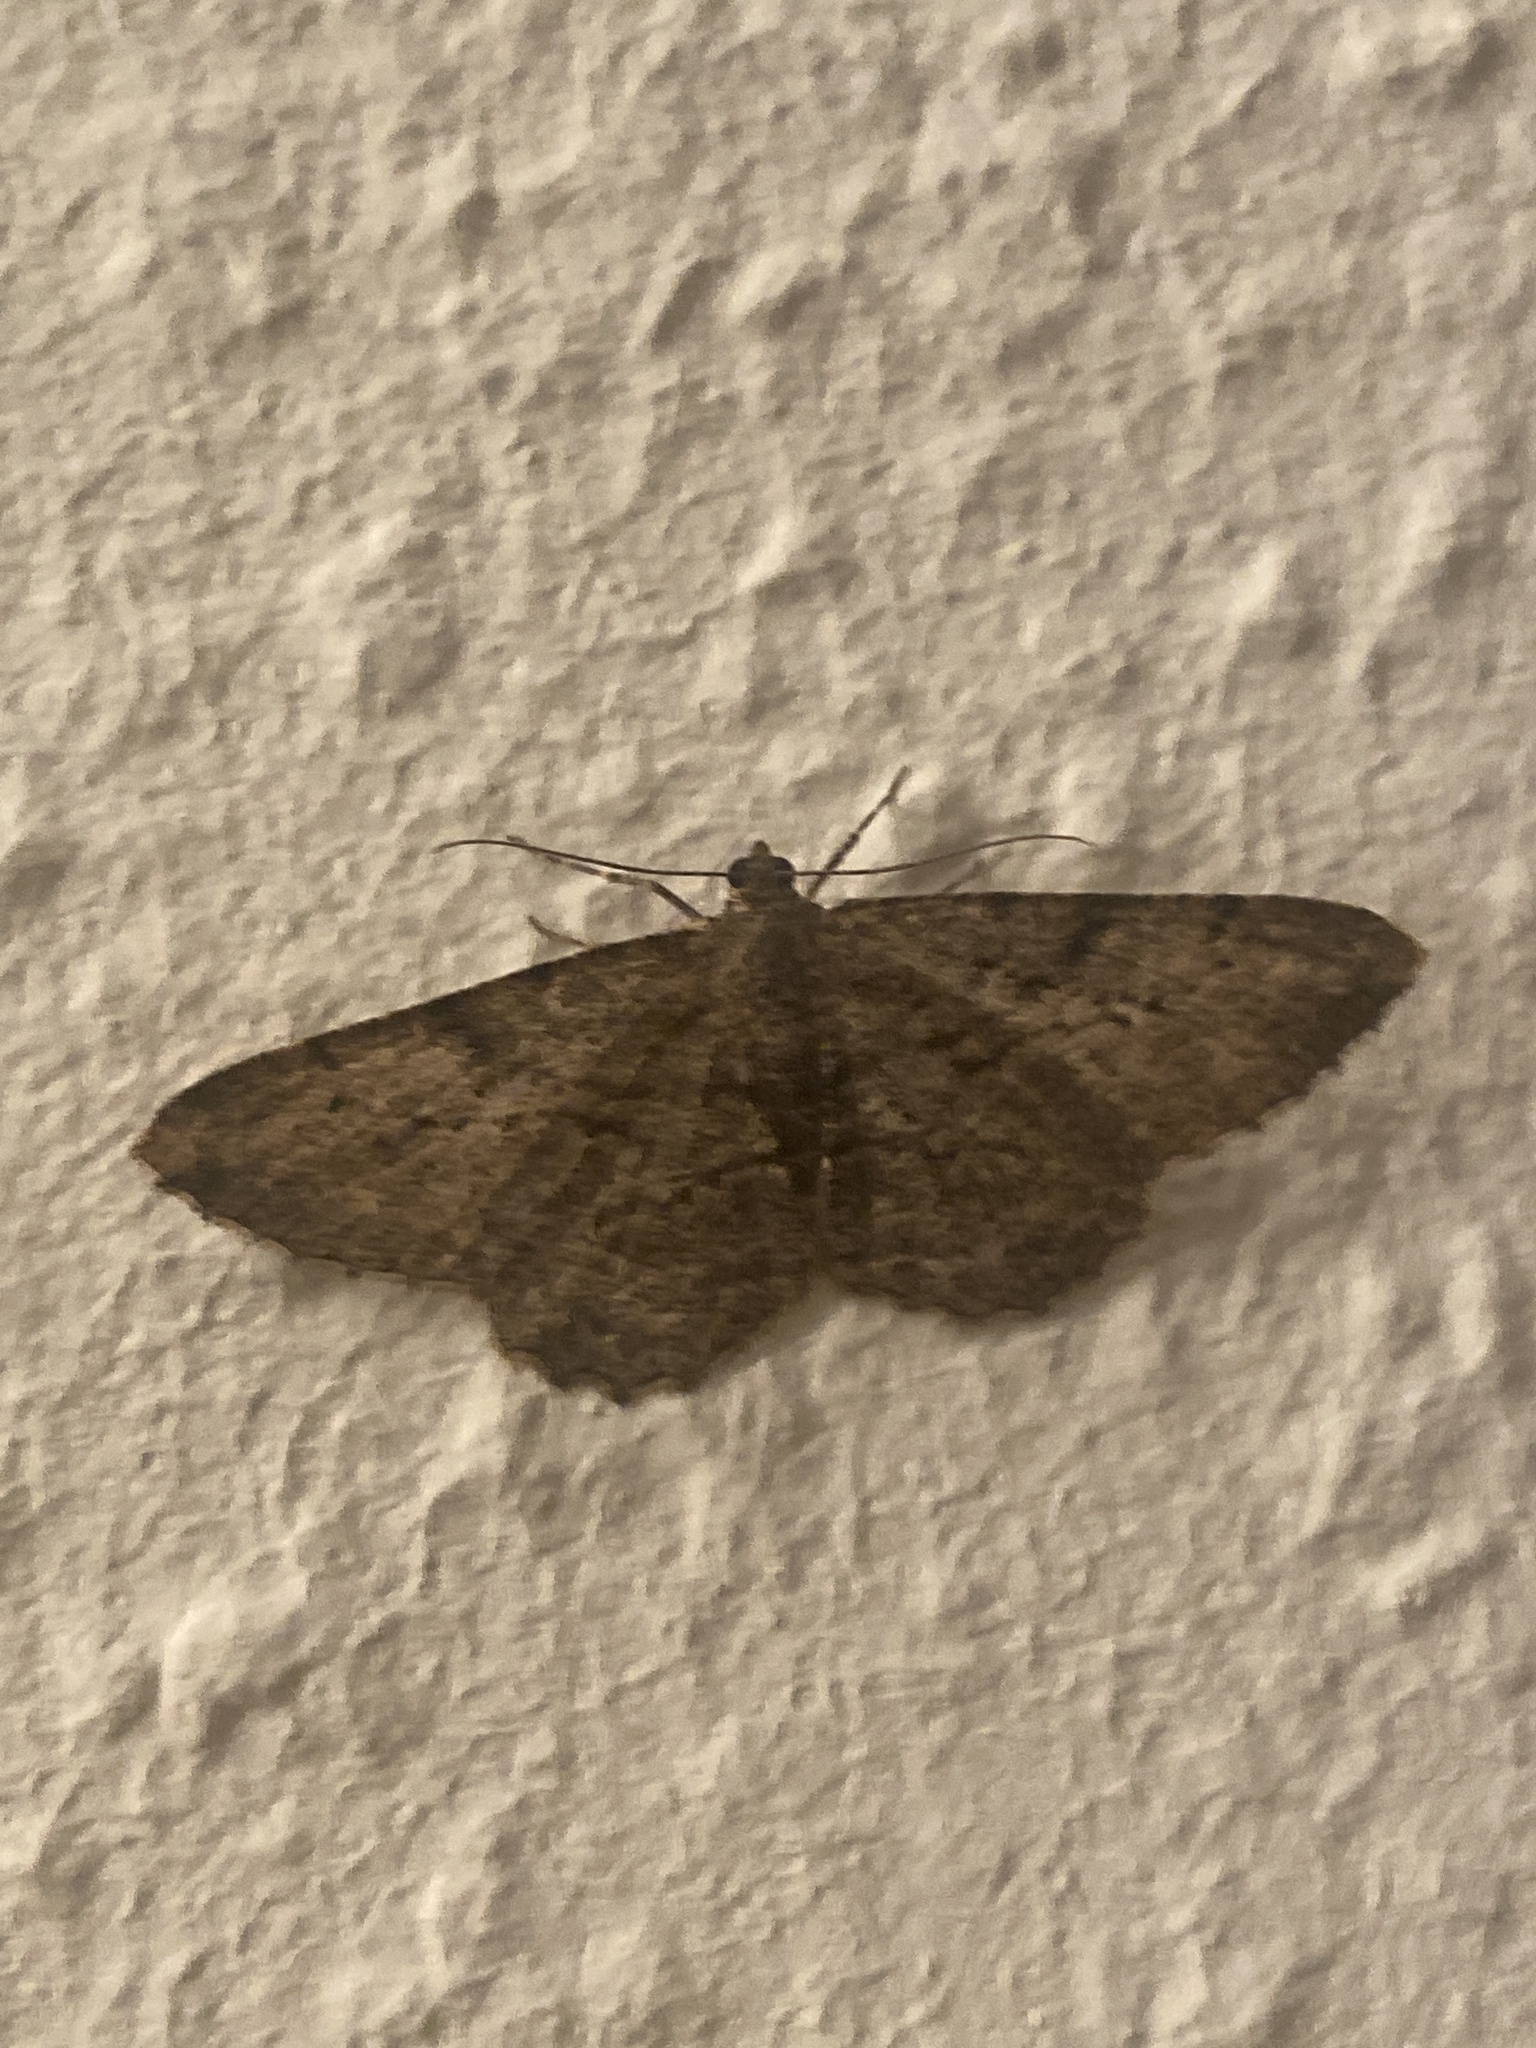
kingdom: Animalia
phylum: Arthropoda
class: Insecta
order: Lepidoptera
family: Geometridae
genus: Peribatodes
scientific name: Peribatodes rhomboidaria
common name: Willow beauty
